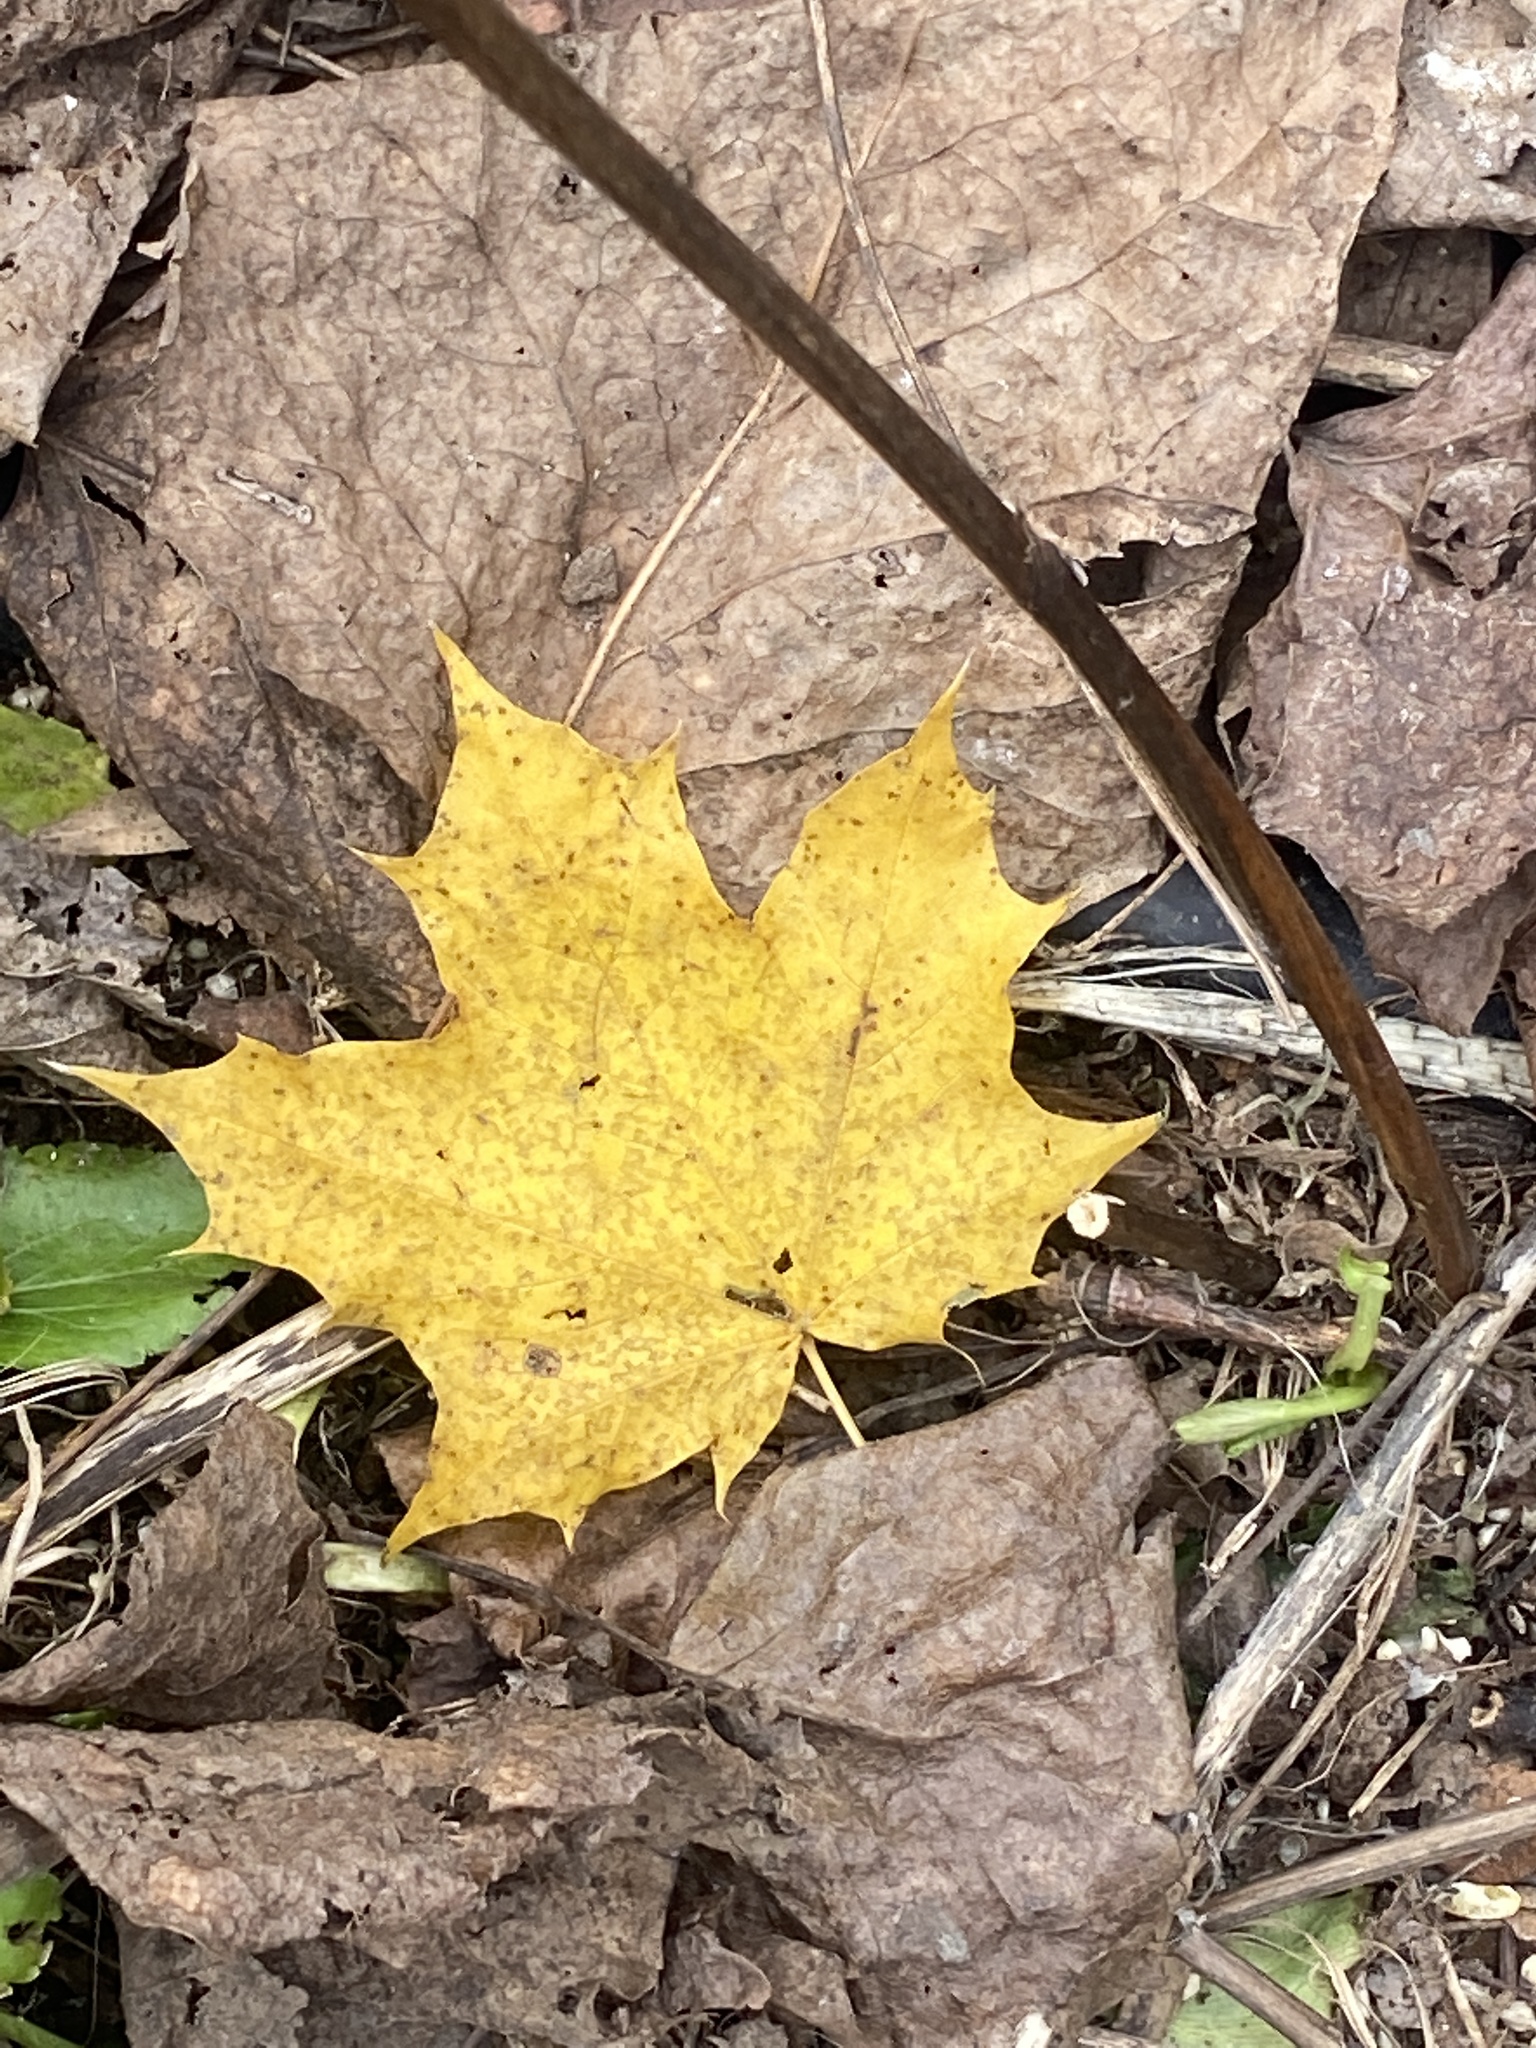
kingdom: Plantae
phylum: Tracheophyta
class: Magnoliopsida
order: Sapindales
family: Sapindaceae
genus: Acer
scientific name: Acer platanoides
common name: Norway maple
